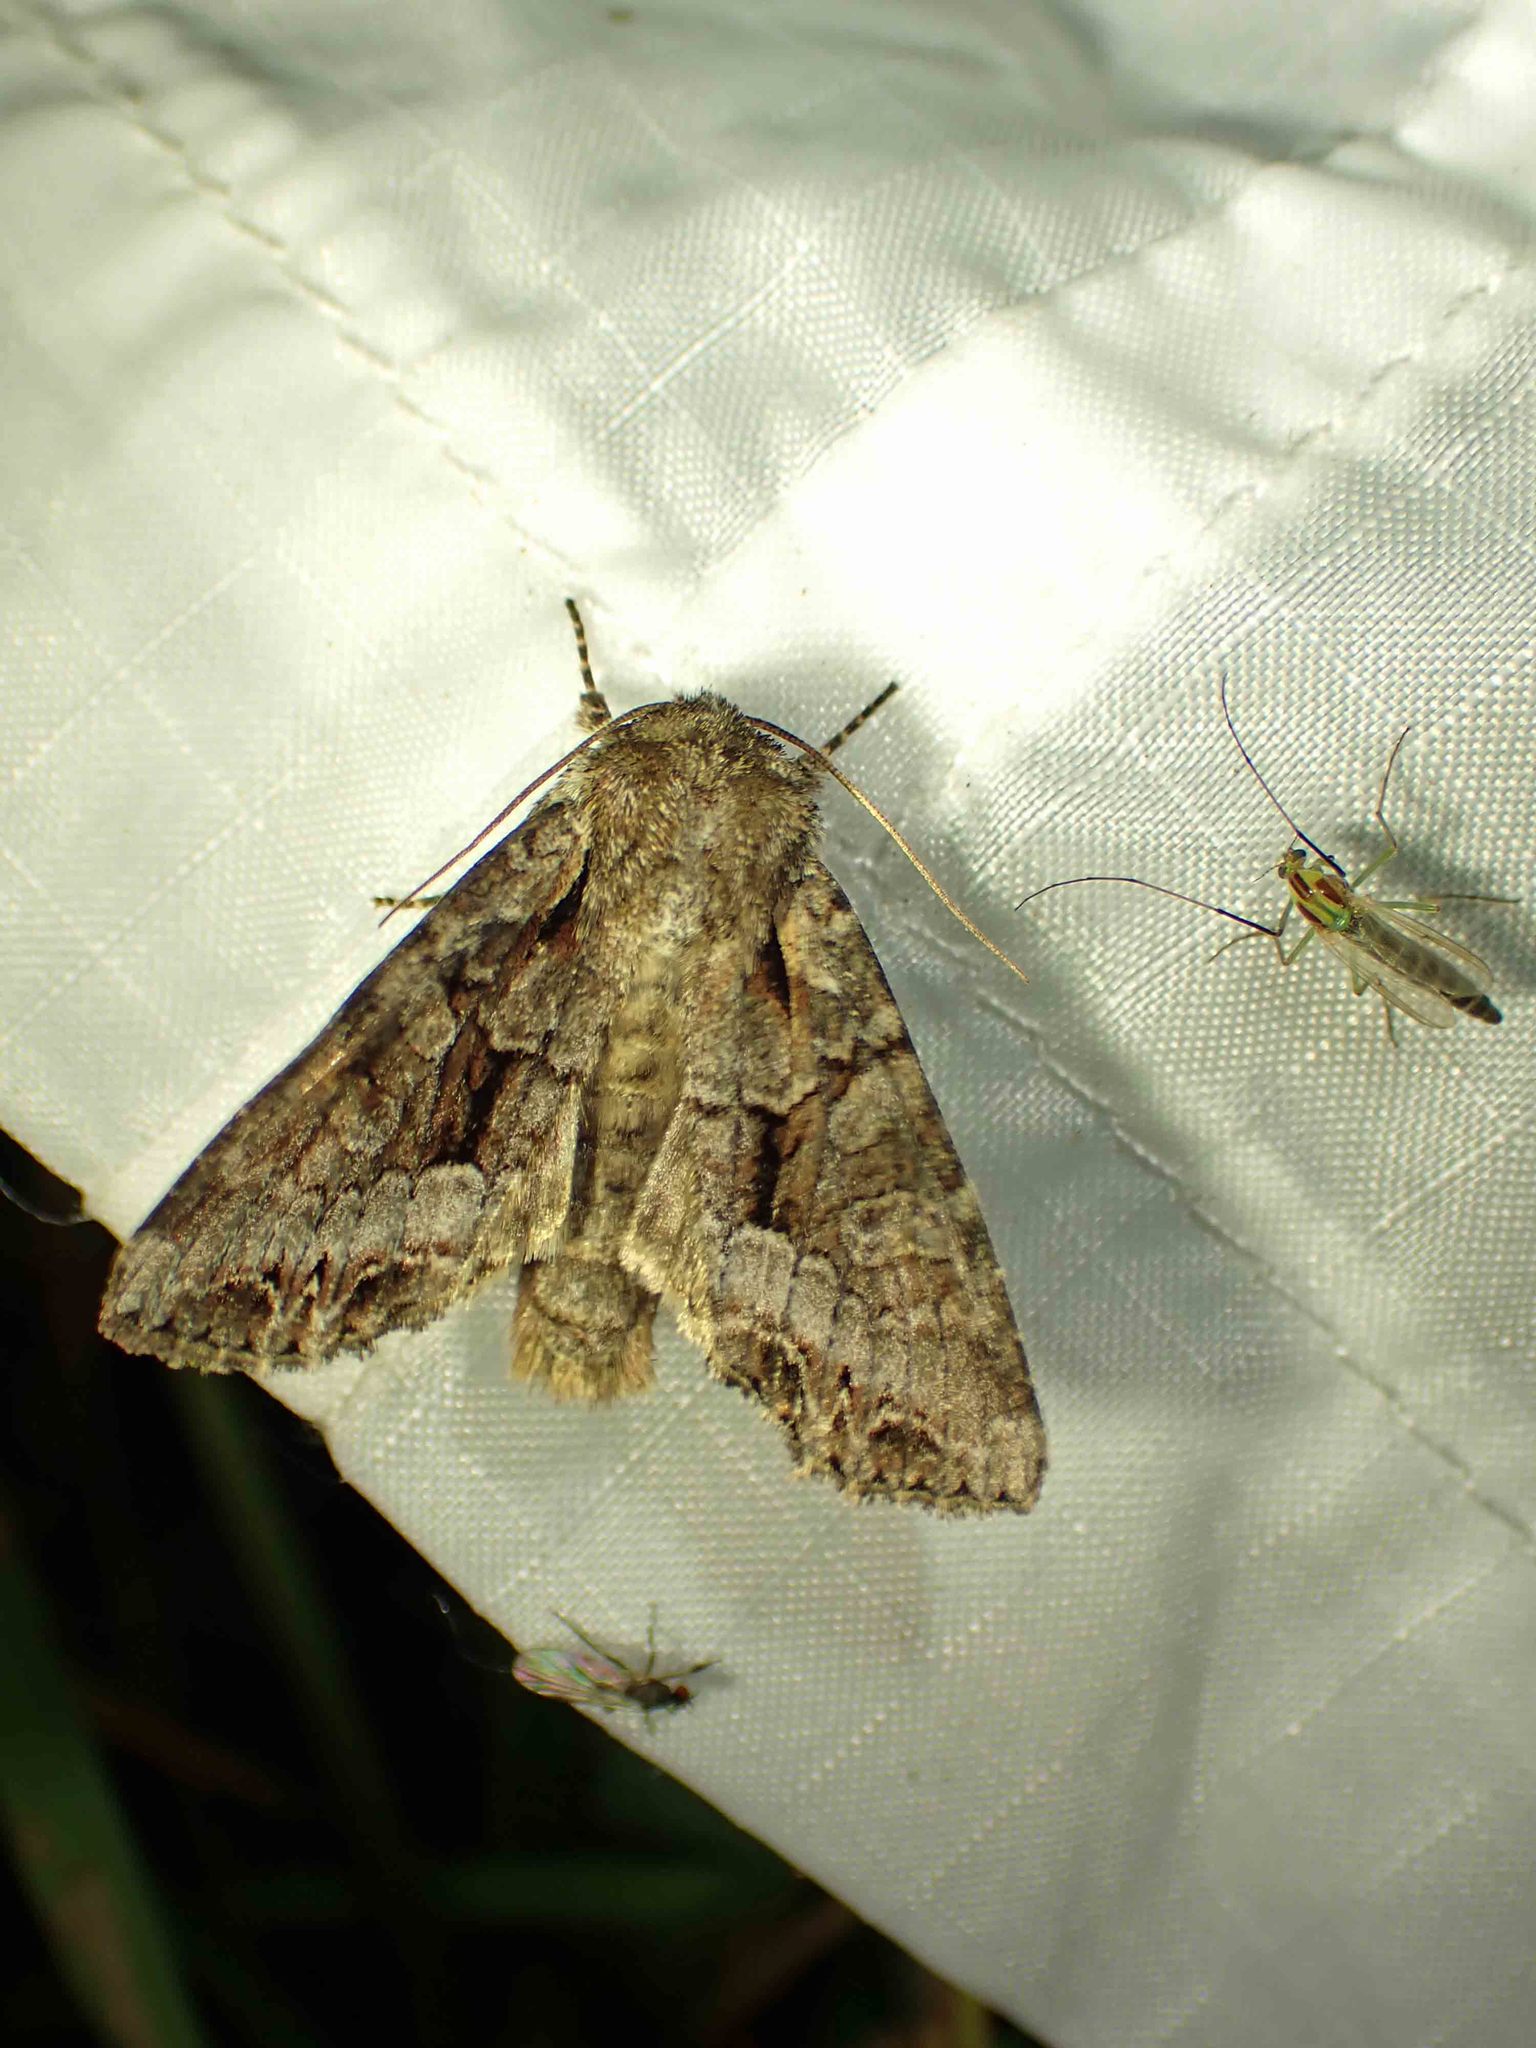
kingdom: Animalia
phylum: Arthropoda
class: Insecta
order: Lepidoptera
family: Noctuidae
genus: Lacanobia
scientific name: Lacanobia grandis
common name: Grand arches moth
